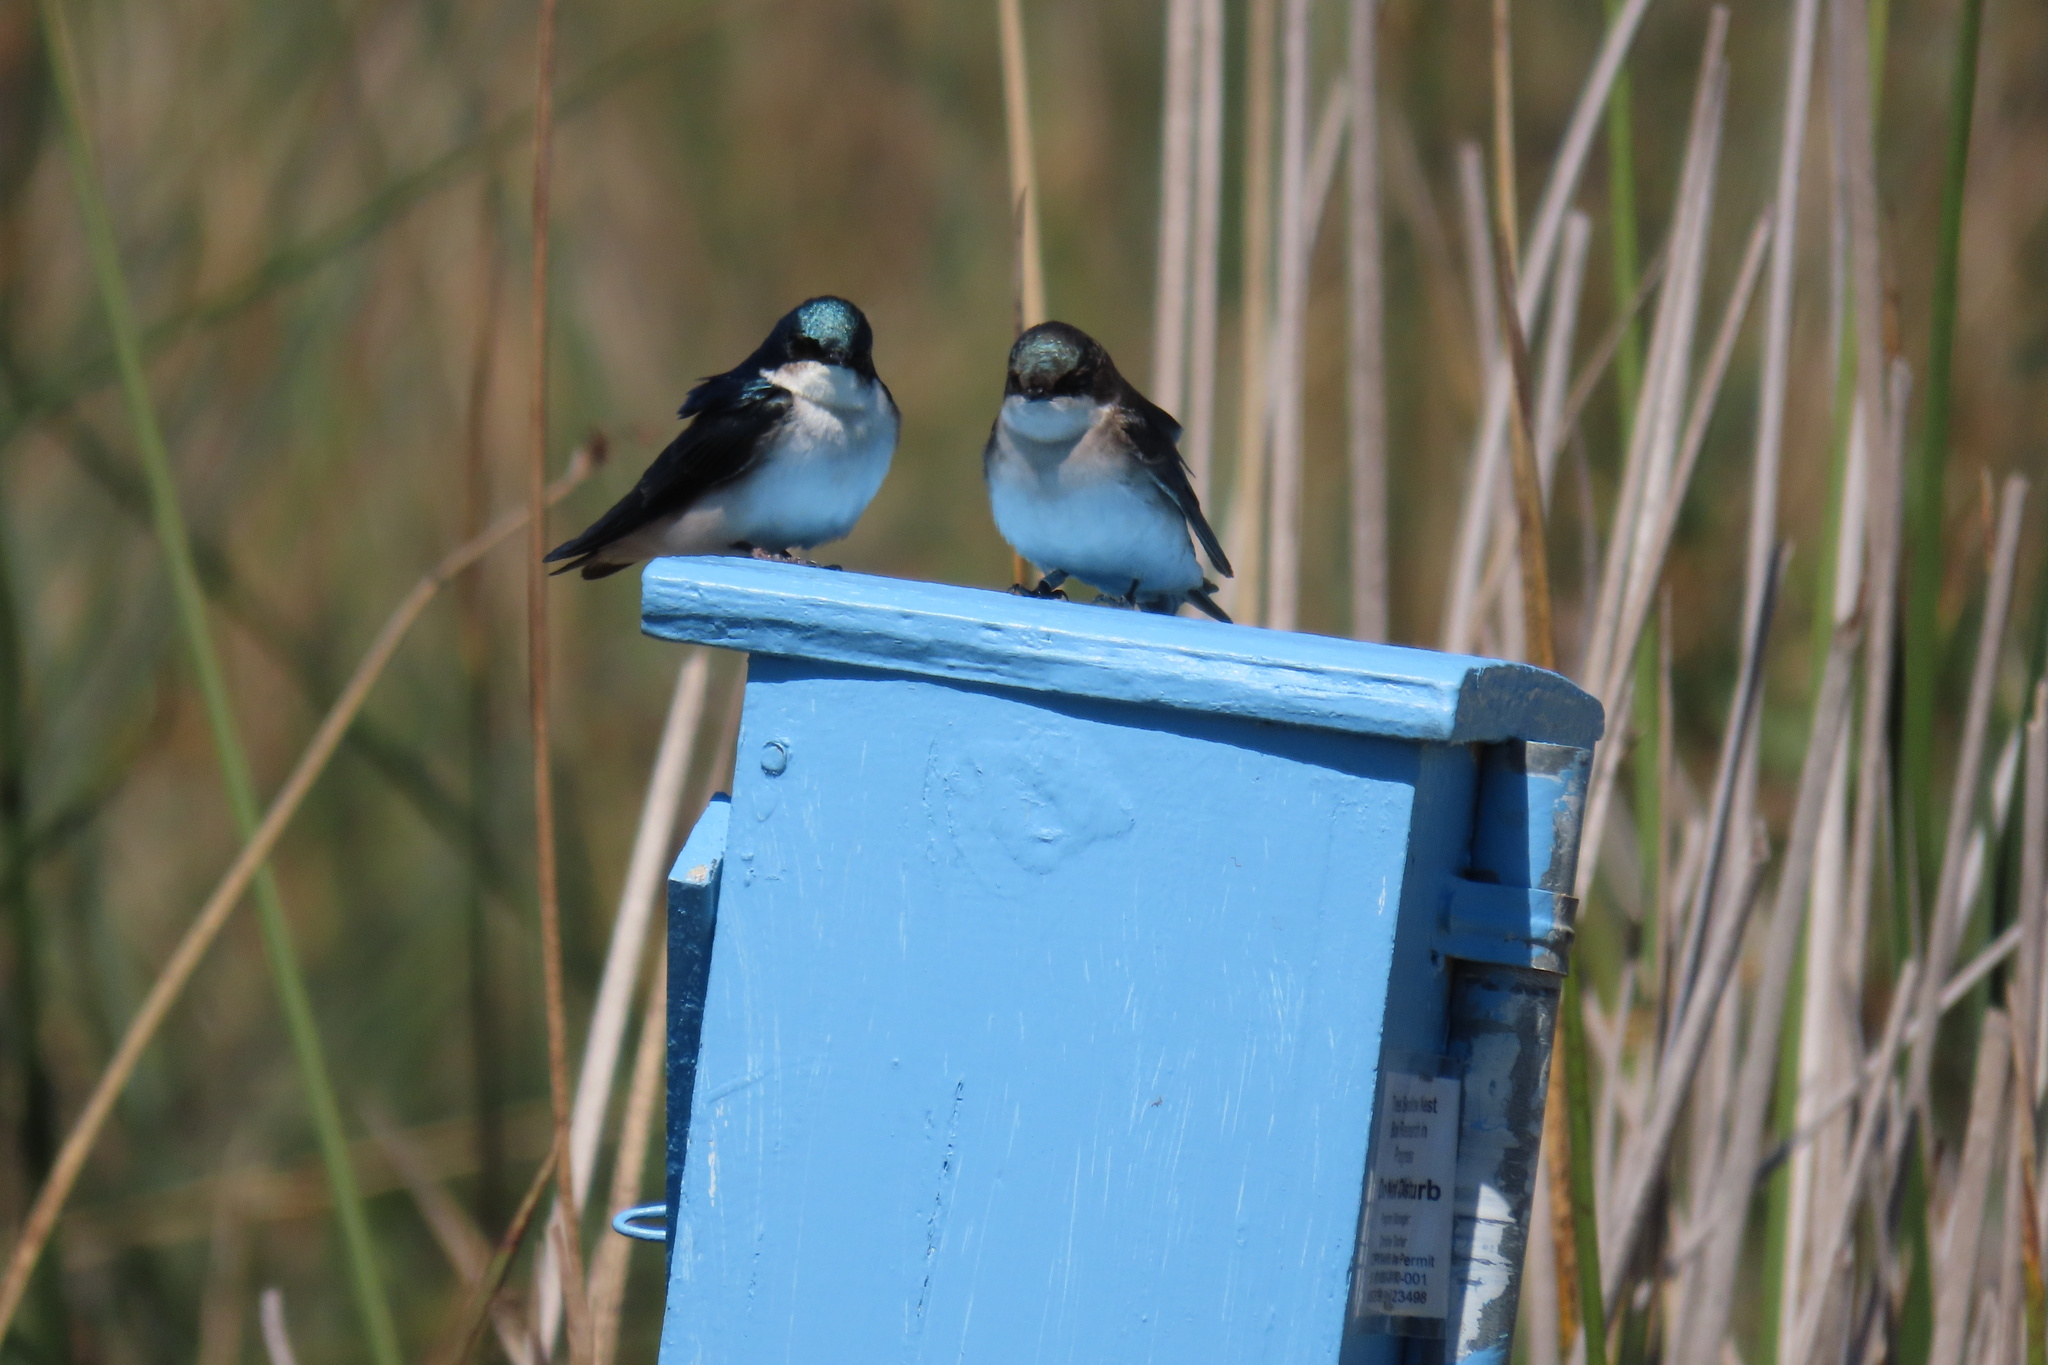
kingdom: Animalia
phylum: Chordata
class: Aves
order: Passeriformes
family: Hirundinidae
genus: Tachycineta
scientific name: Tachycineta bicolor
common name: Tree swallow
